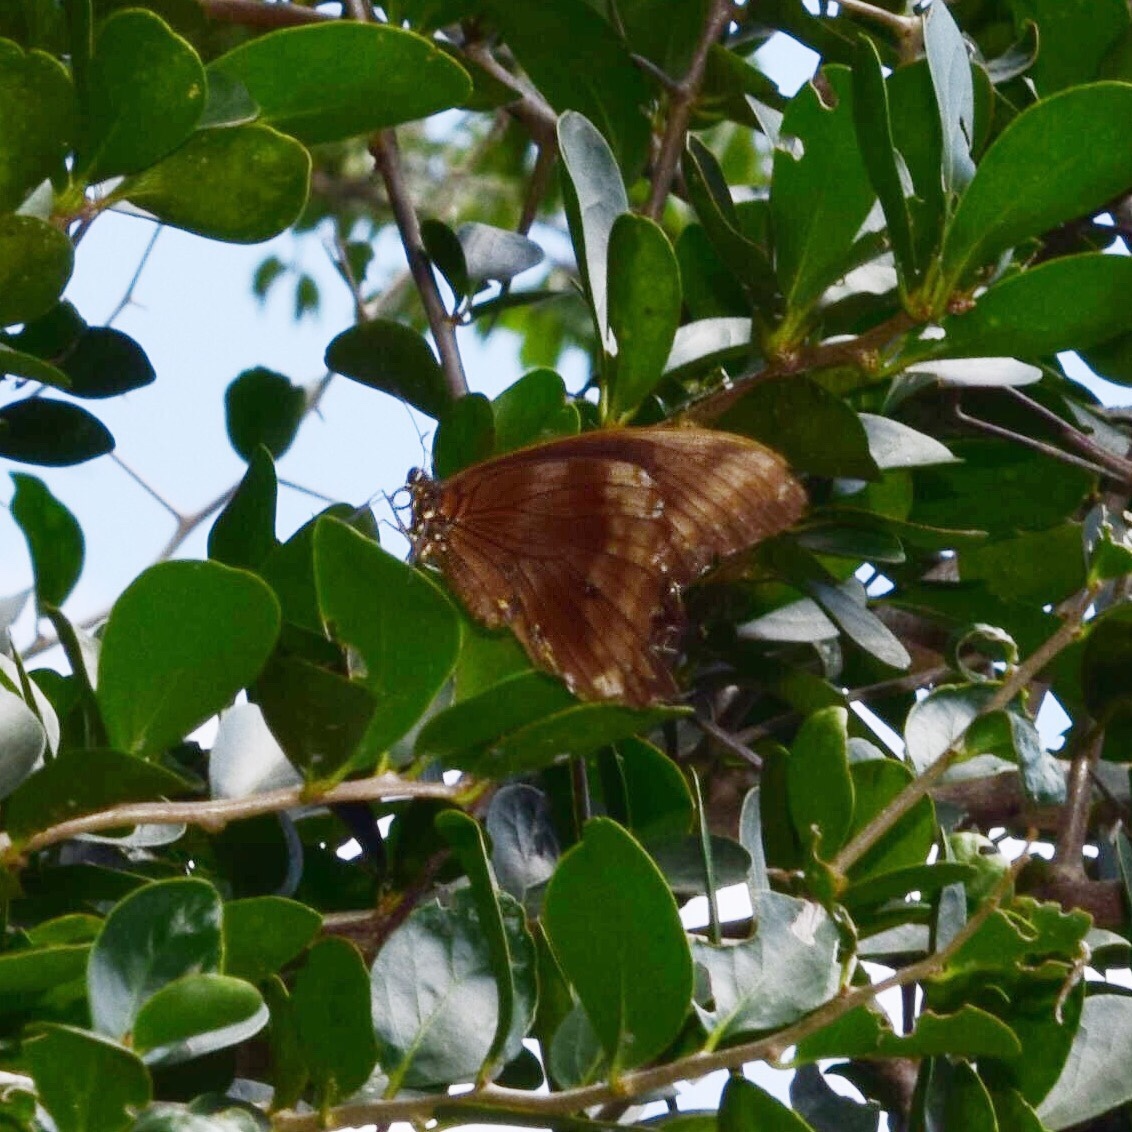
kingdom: Animalia
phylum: Arthropoda
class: Insecta
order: Lepidoptera
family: Papilionidae
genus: Papilio
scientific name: Papilio nireus
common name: Greenbanded swallowtail
